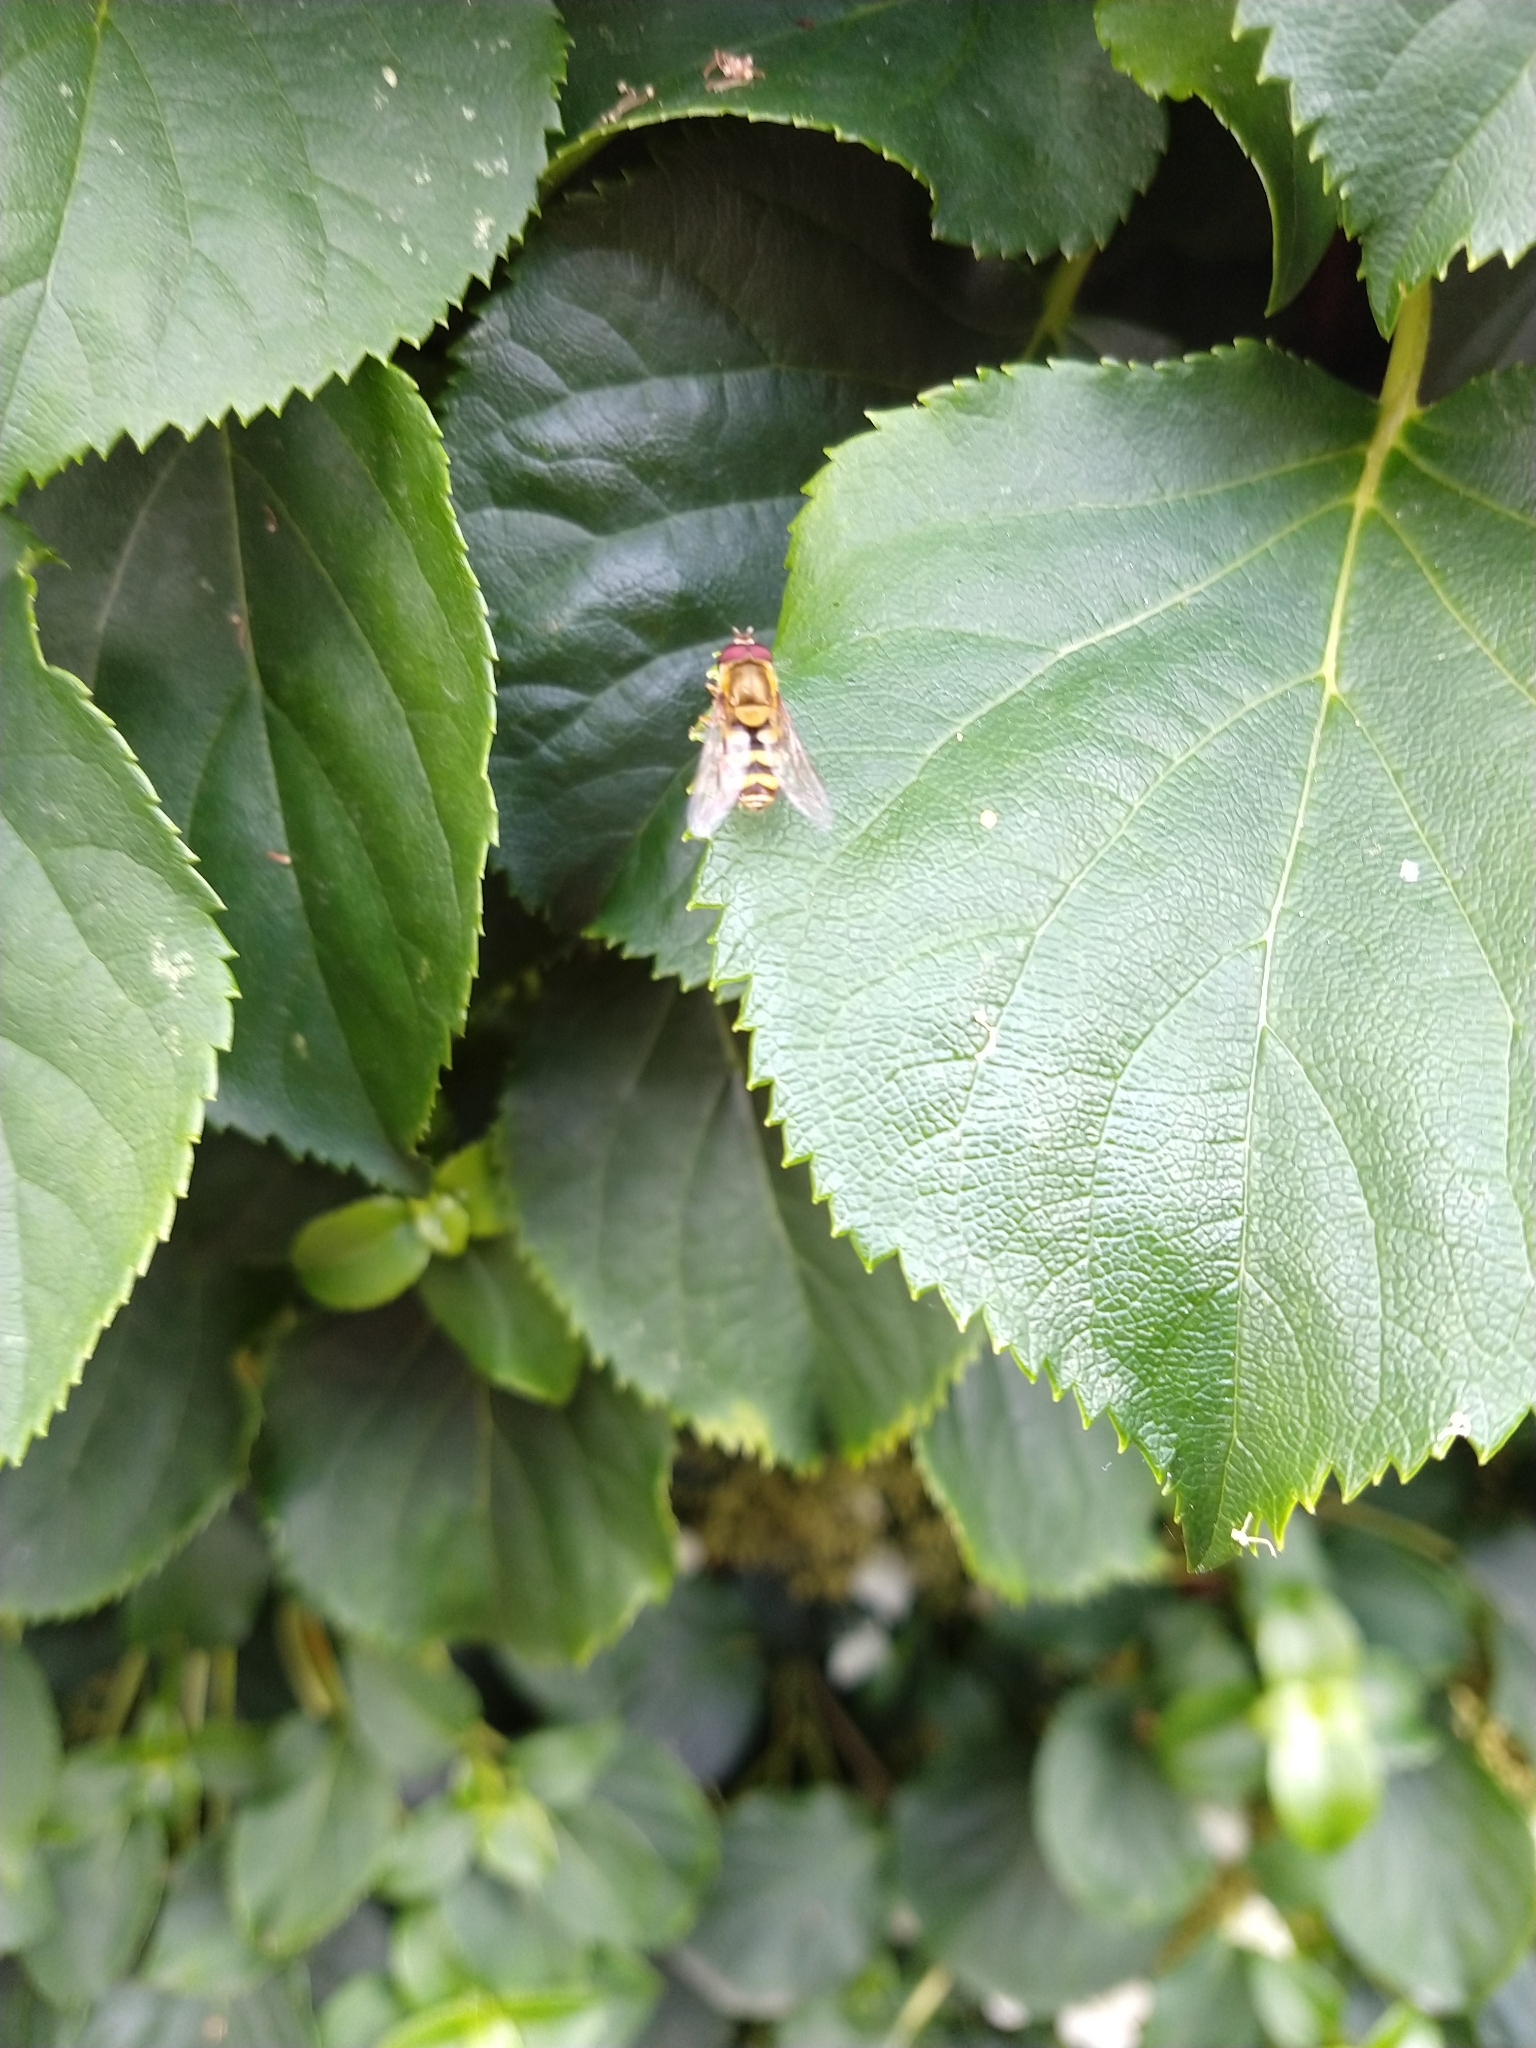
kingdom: Animalia
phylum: Arthropoda
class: Insecta
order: Diptera
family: Syrphidae
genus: Syrphus
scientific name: Syrphus
